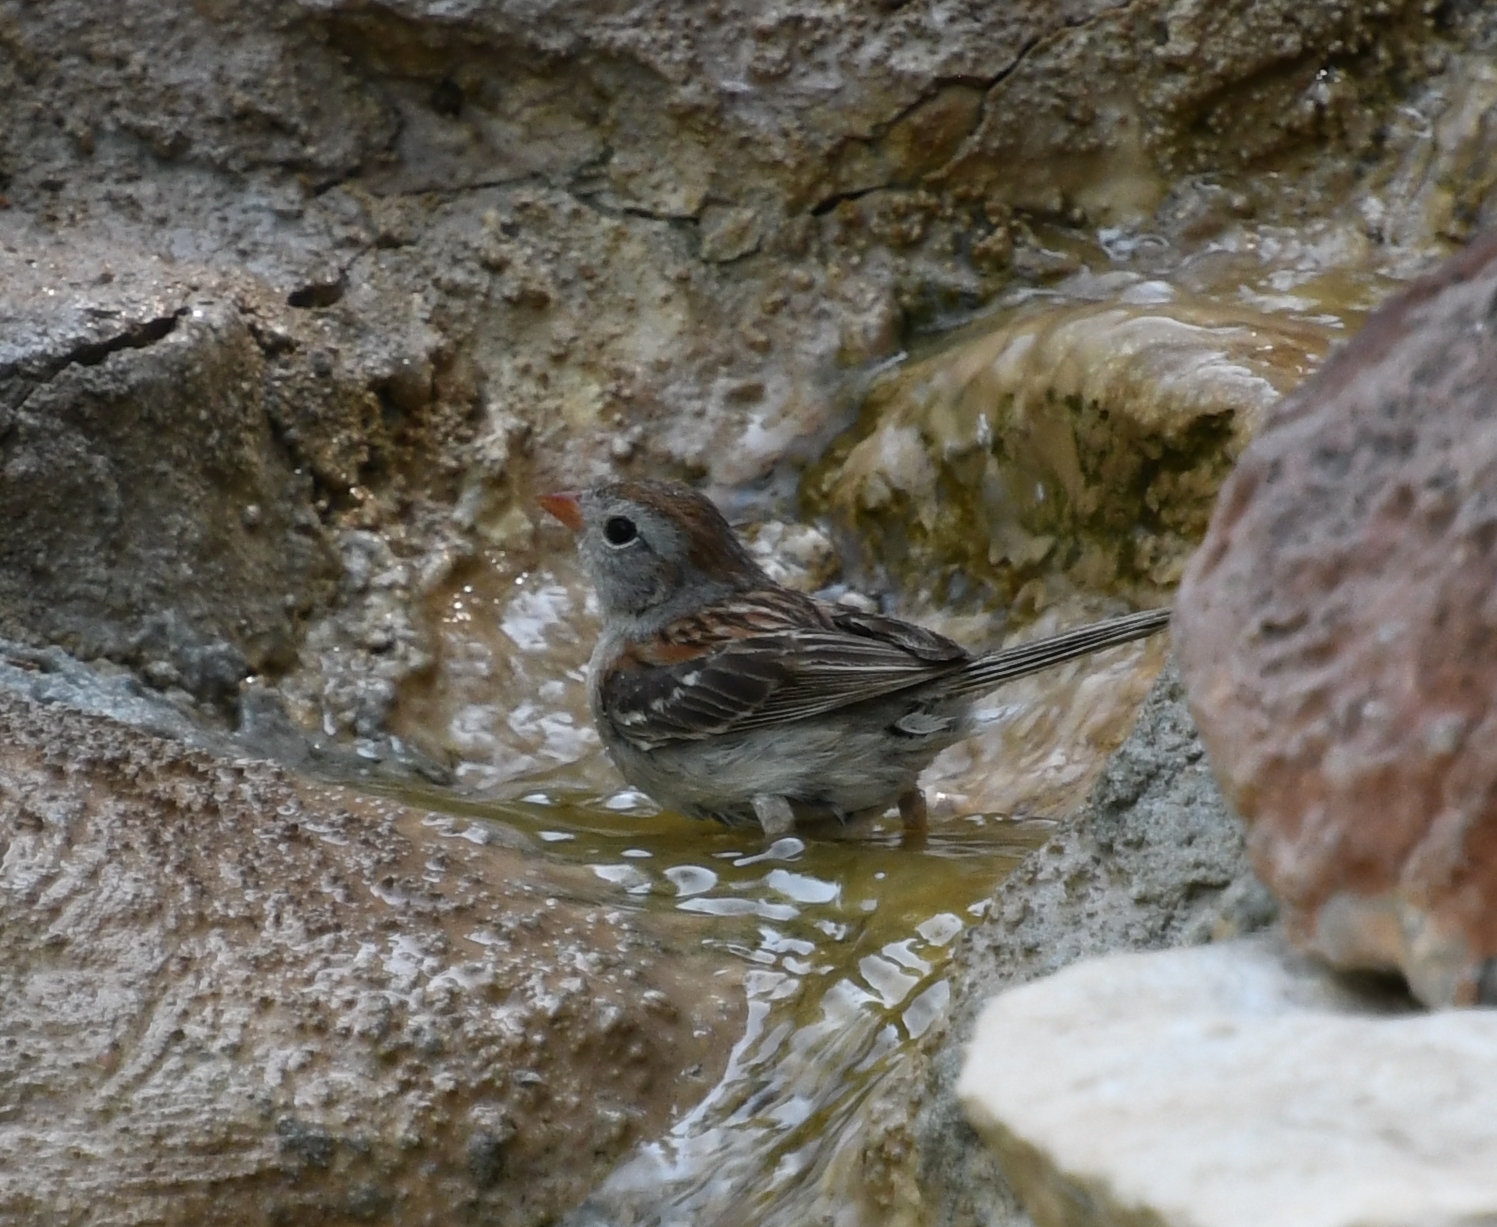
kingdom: Animalia
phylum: Chordata
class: Aves
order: Passeriformes
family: Passerellidae
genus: Spizella
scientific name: Spizella pusilla
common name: Field sparrow
